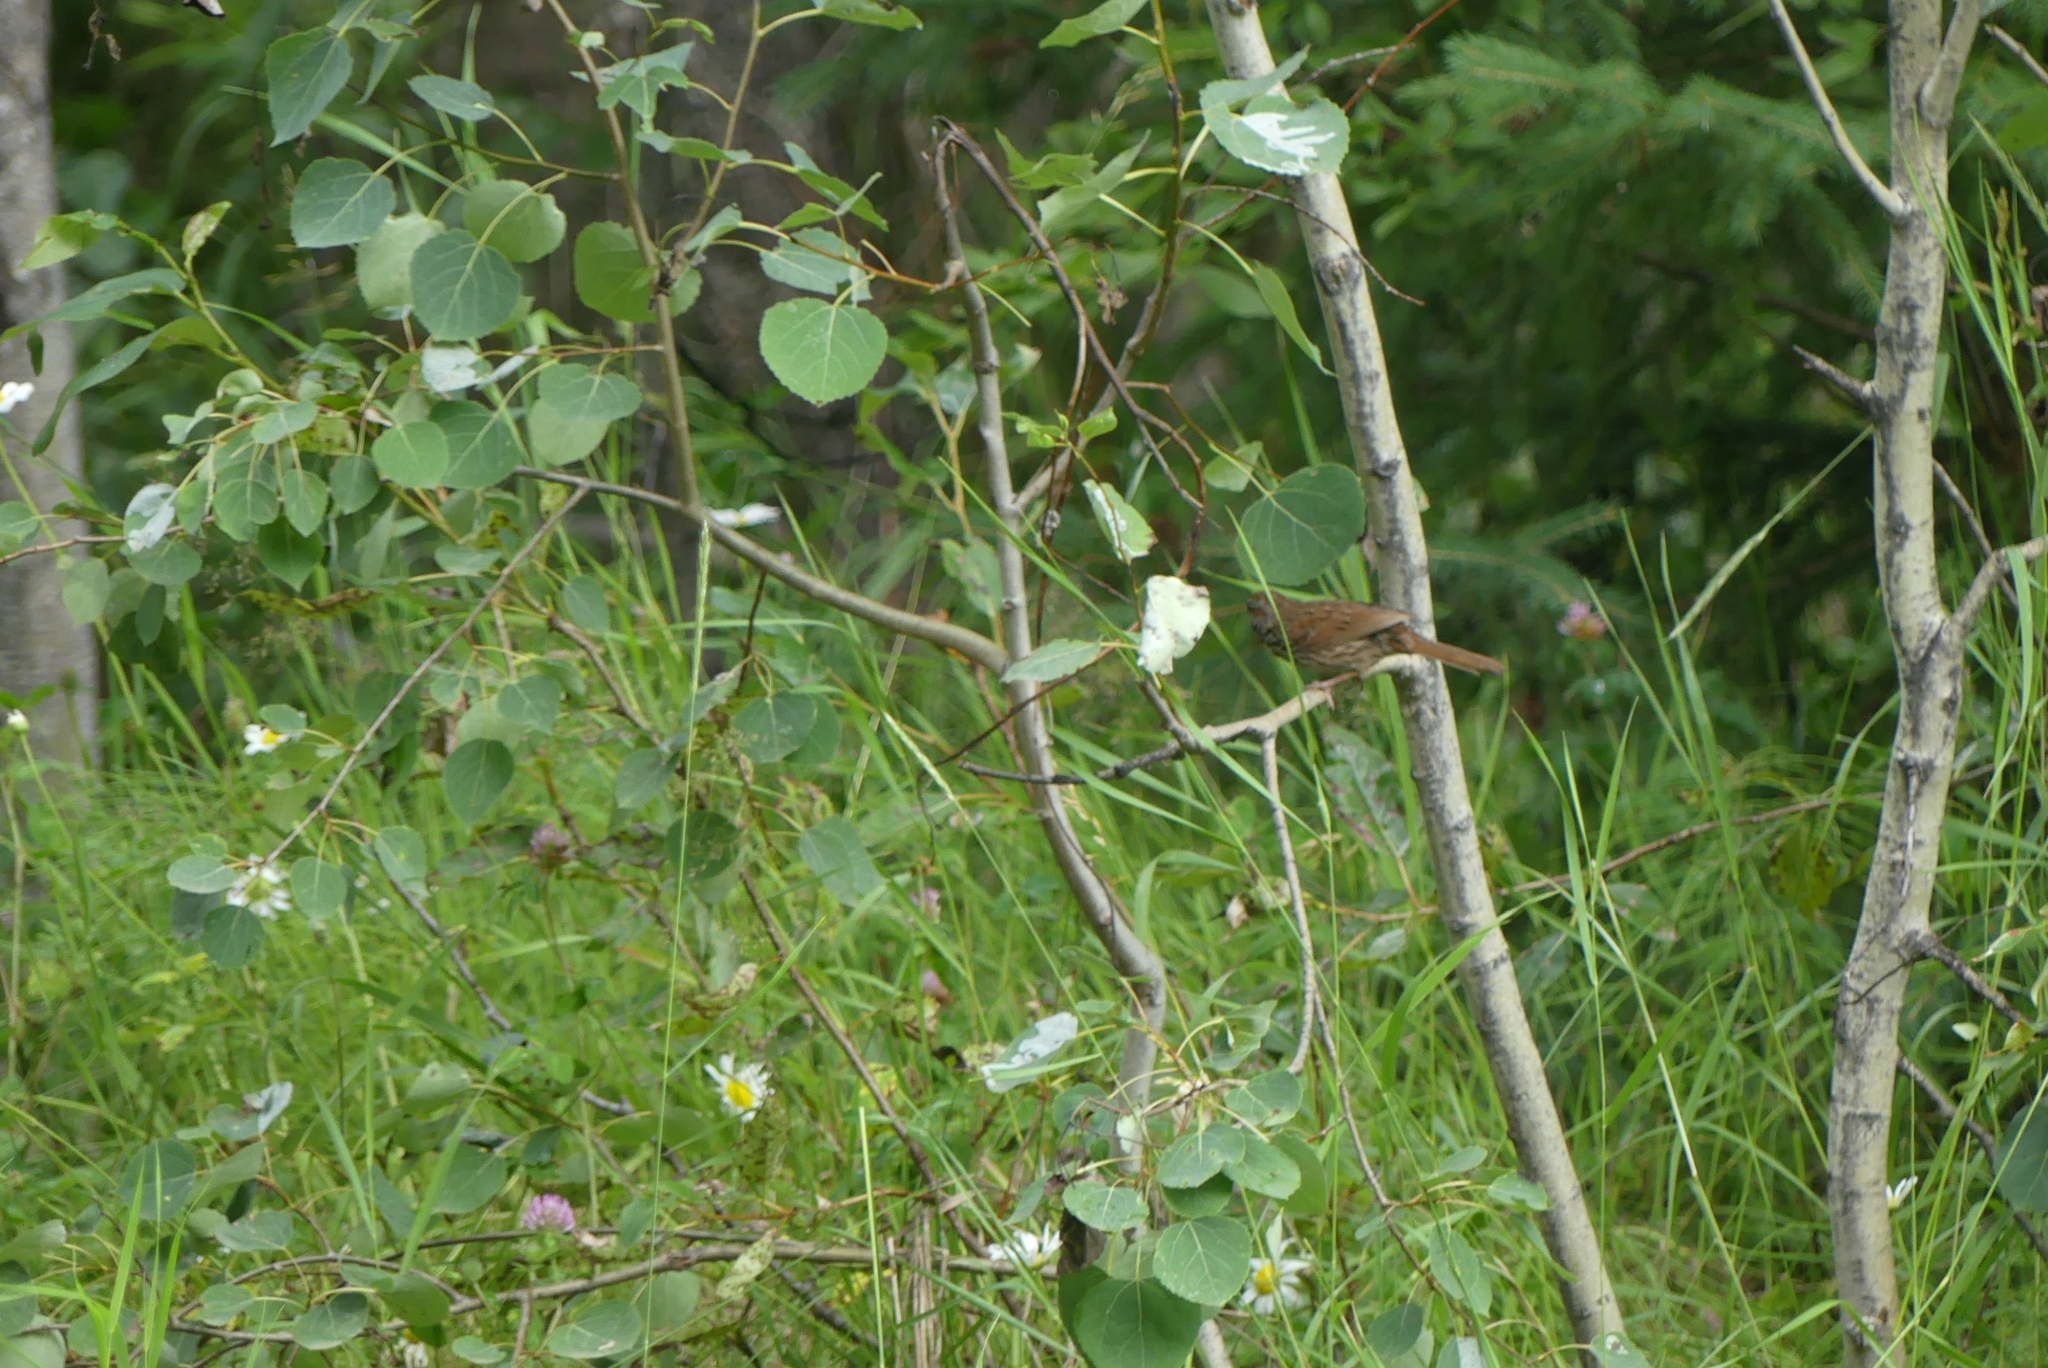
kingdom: Animalia
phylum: Chordata
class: Aves
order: Passeriformes
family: Passerellidae
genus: Melospiza
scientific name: Melospiza melodia
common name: Song sparrow
